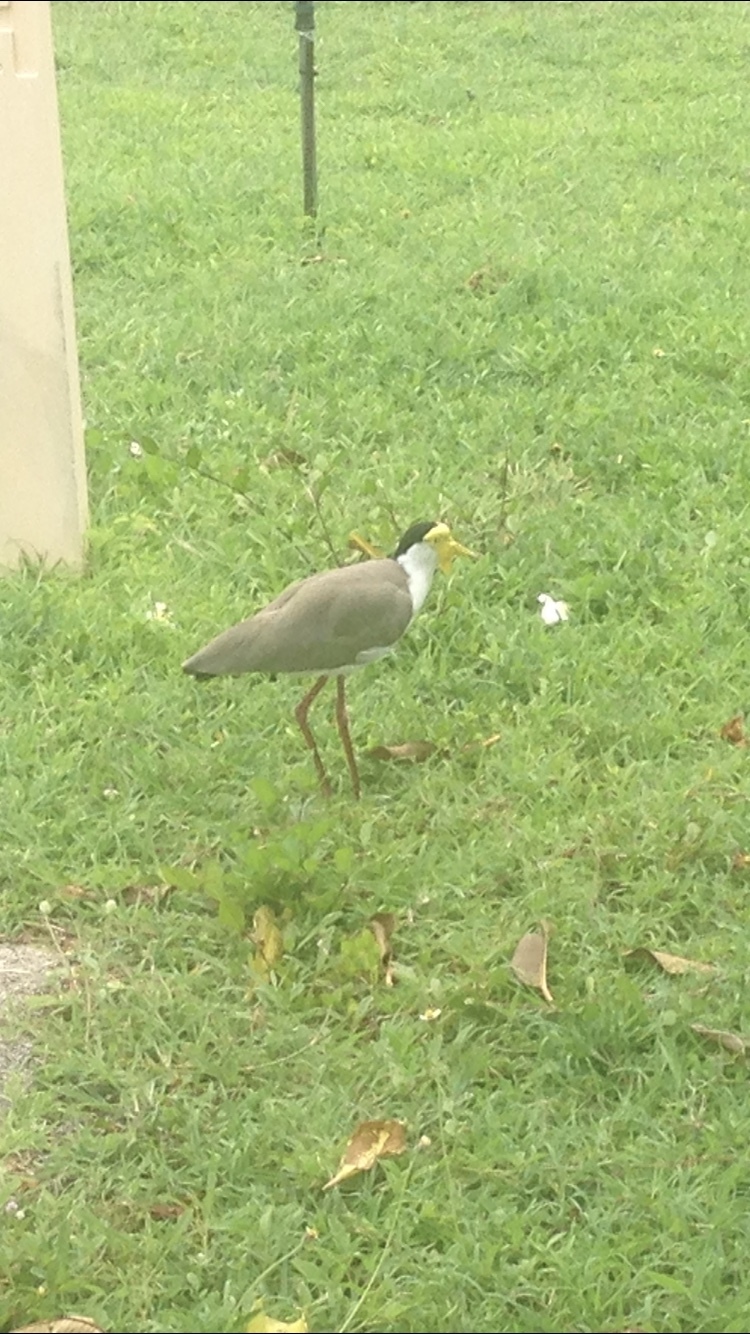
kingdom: Animalia
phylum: Chordata
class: Aves
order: Charadriiformes
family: Charadriidae
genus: Vanellus
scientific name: Vanellus miles
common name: Masked lapwing
